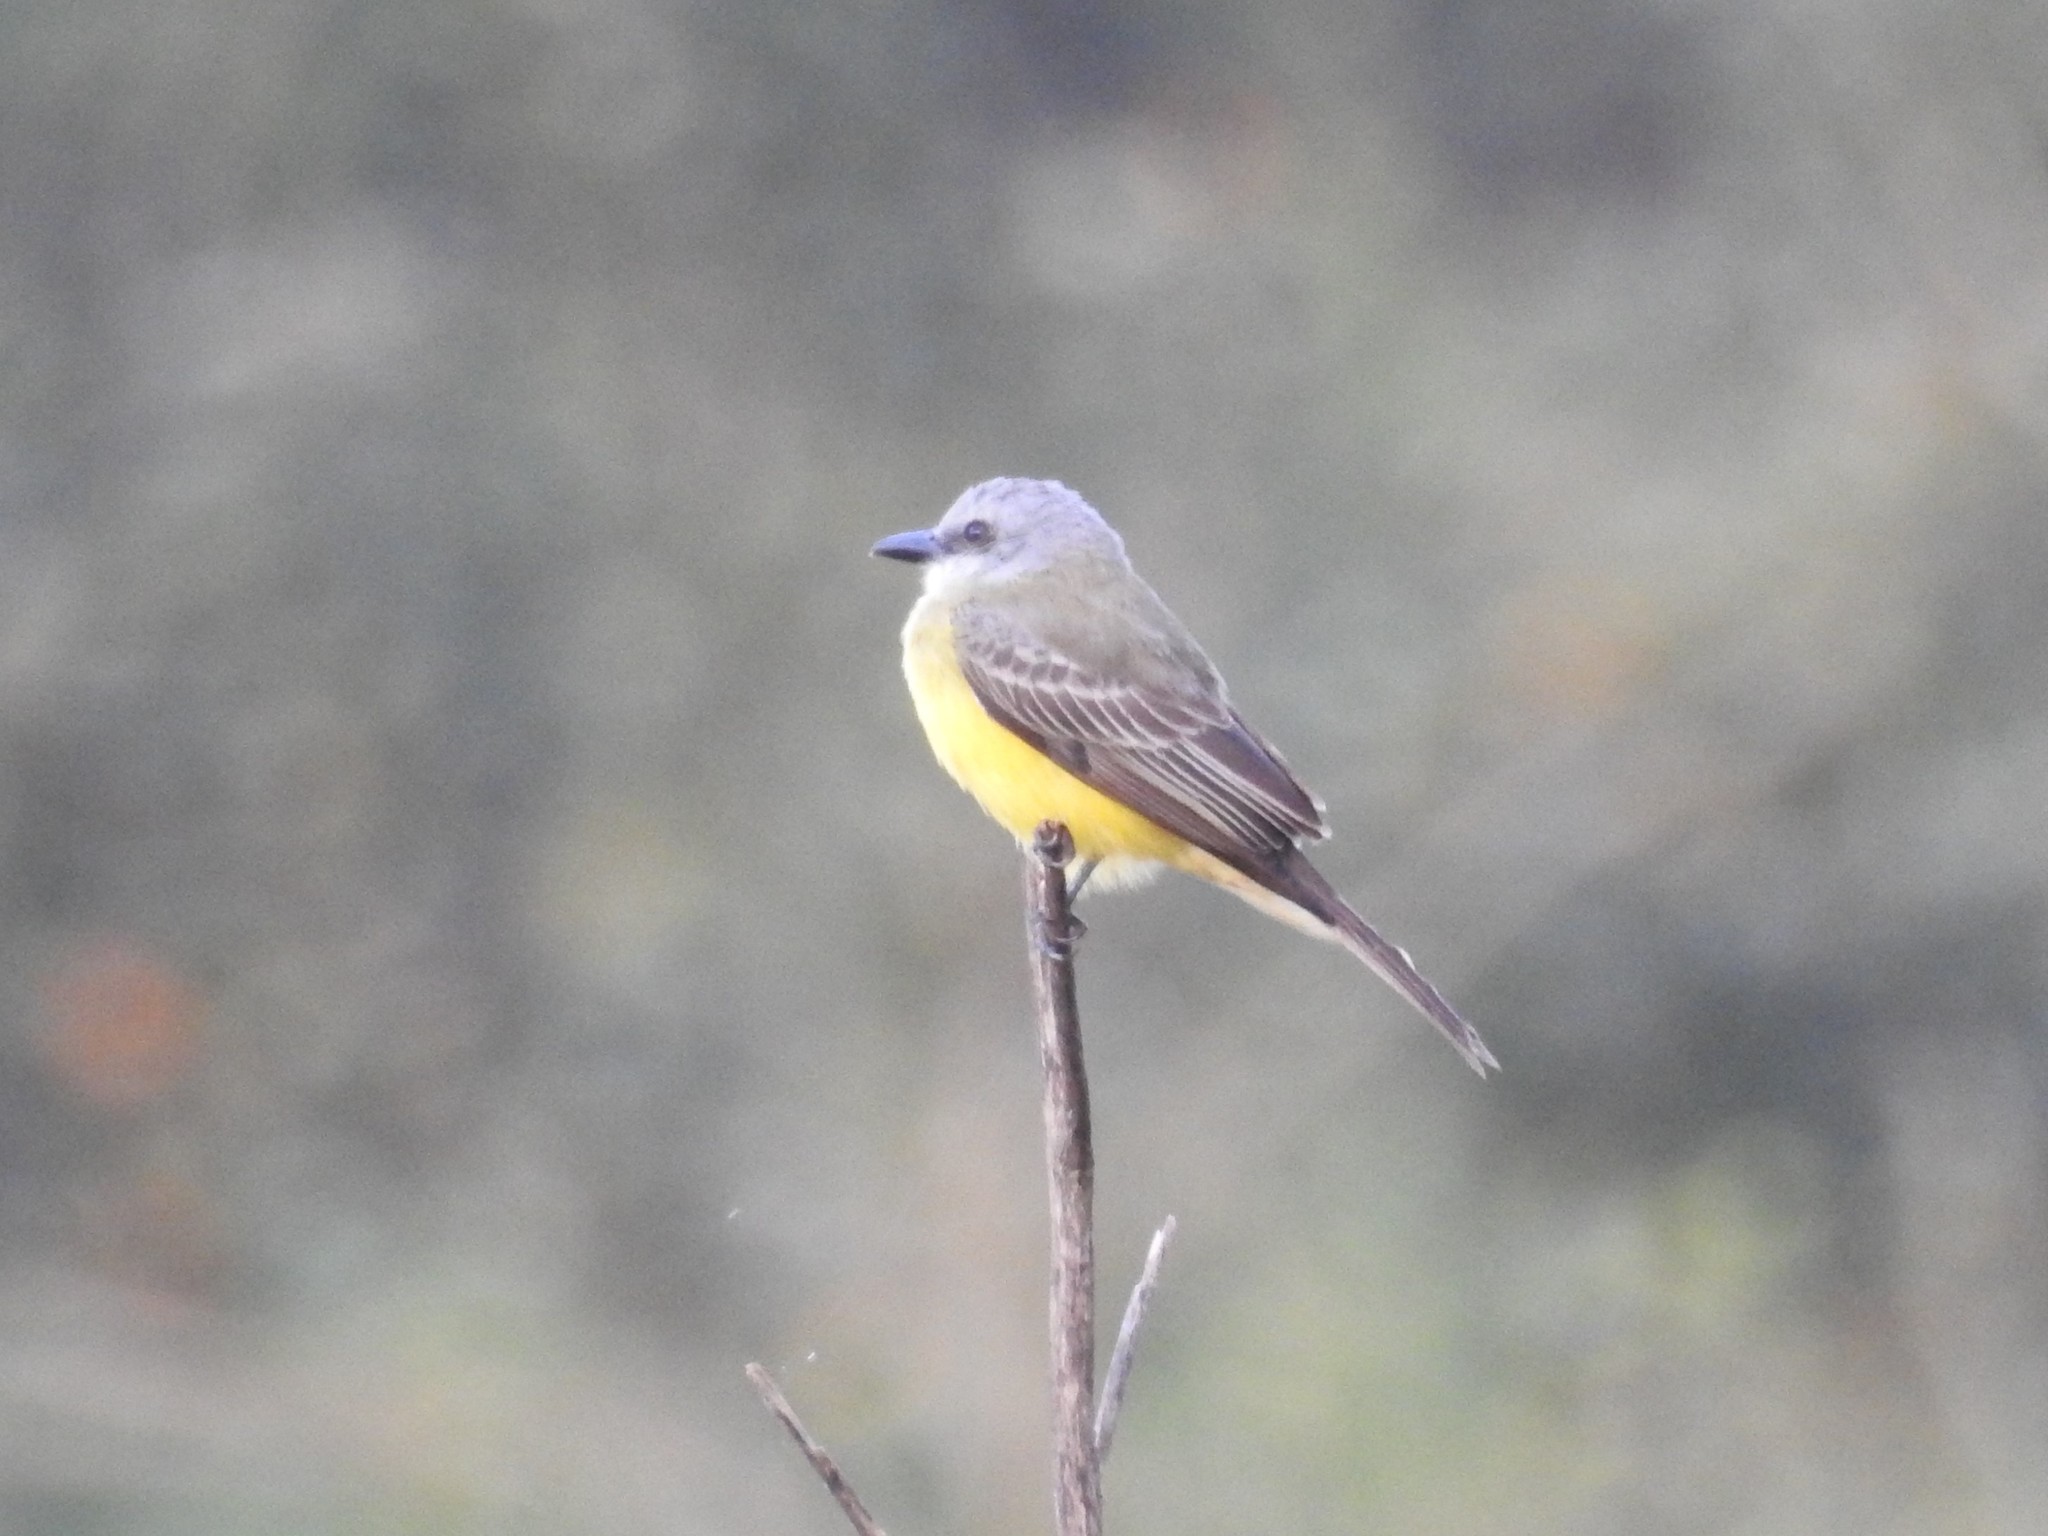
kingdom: Animalia
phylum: Chordata
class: Aves
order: Passeriformes
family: Tyrannidae
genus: Tyrannus
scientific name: Tyrannus melancholicus
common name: Tropical kingbird
